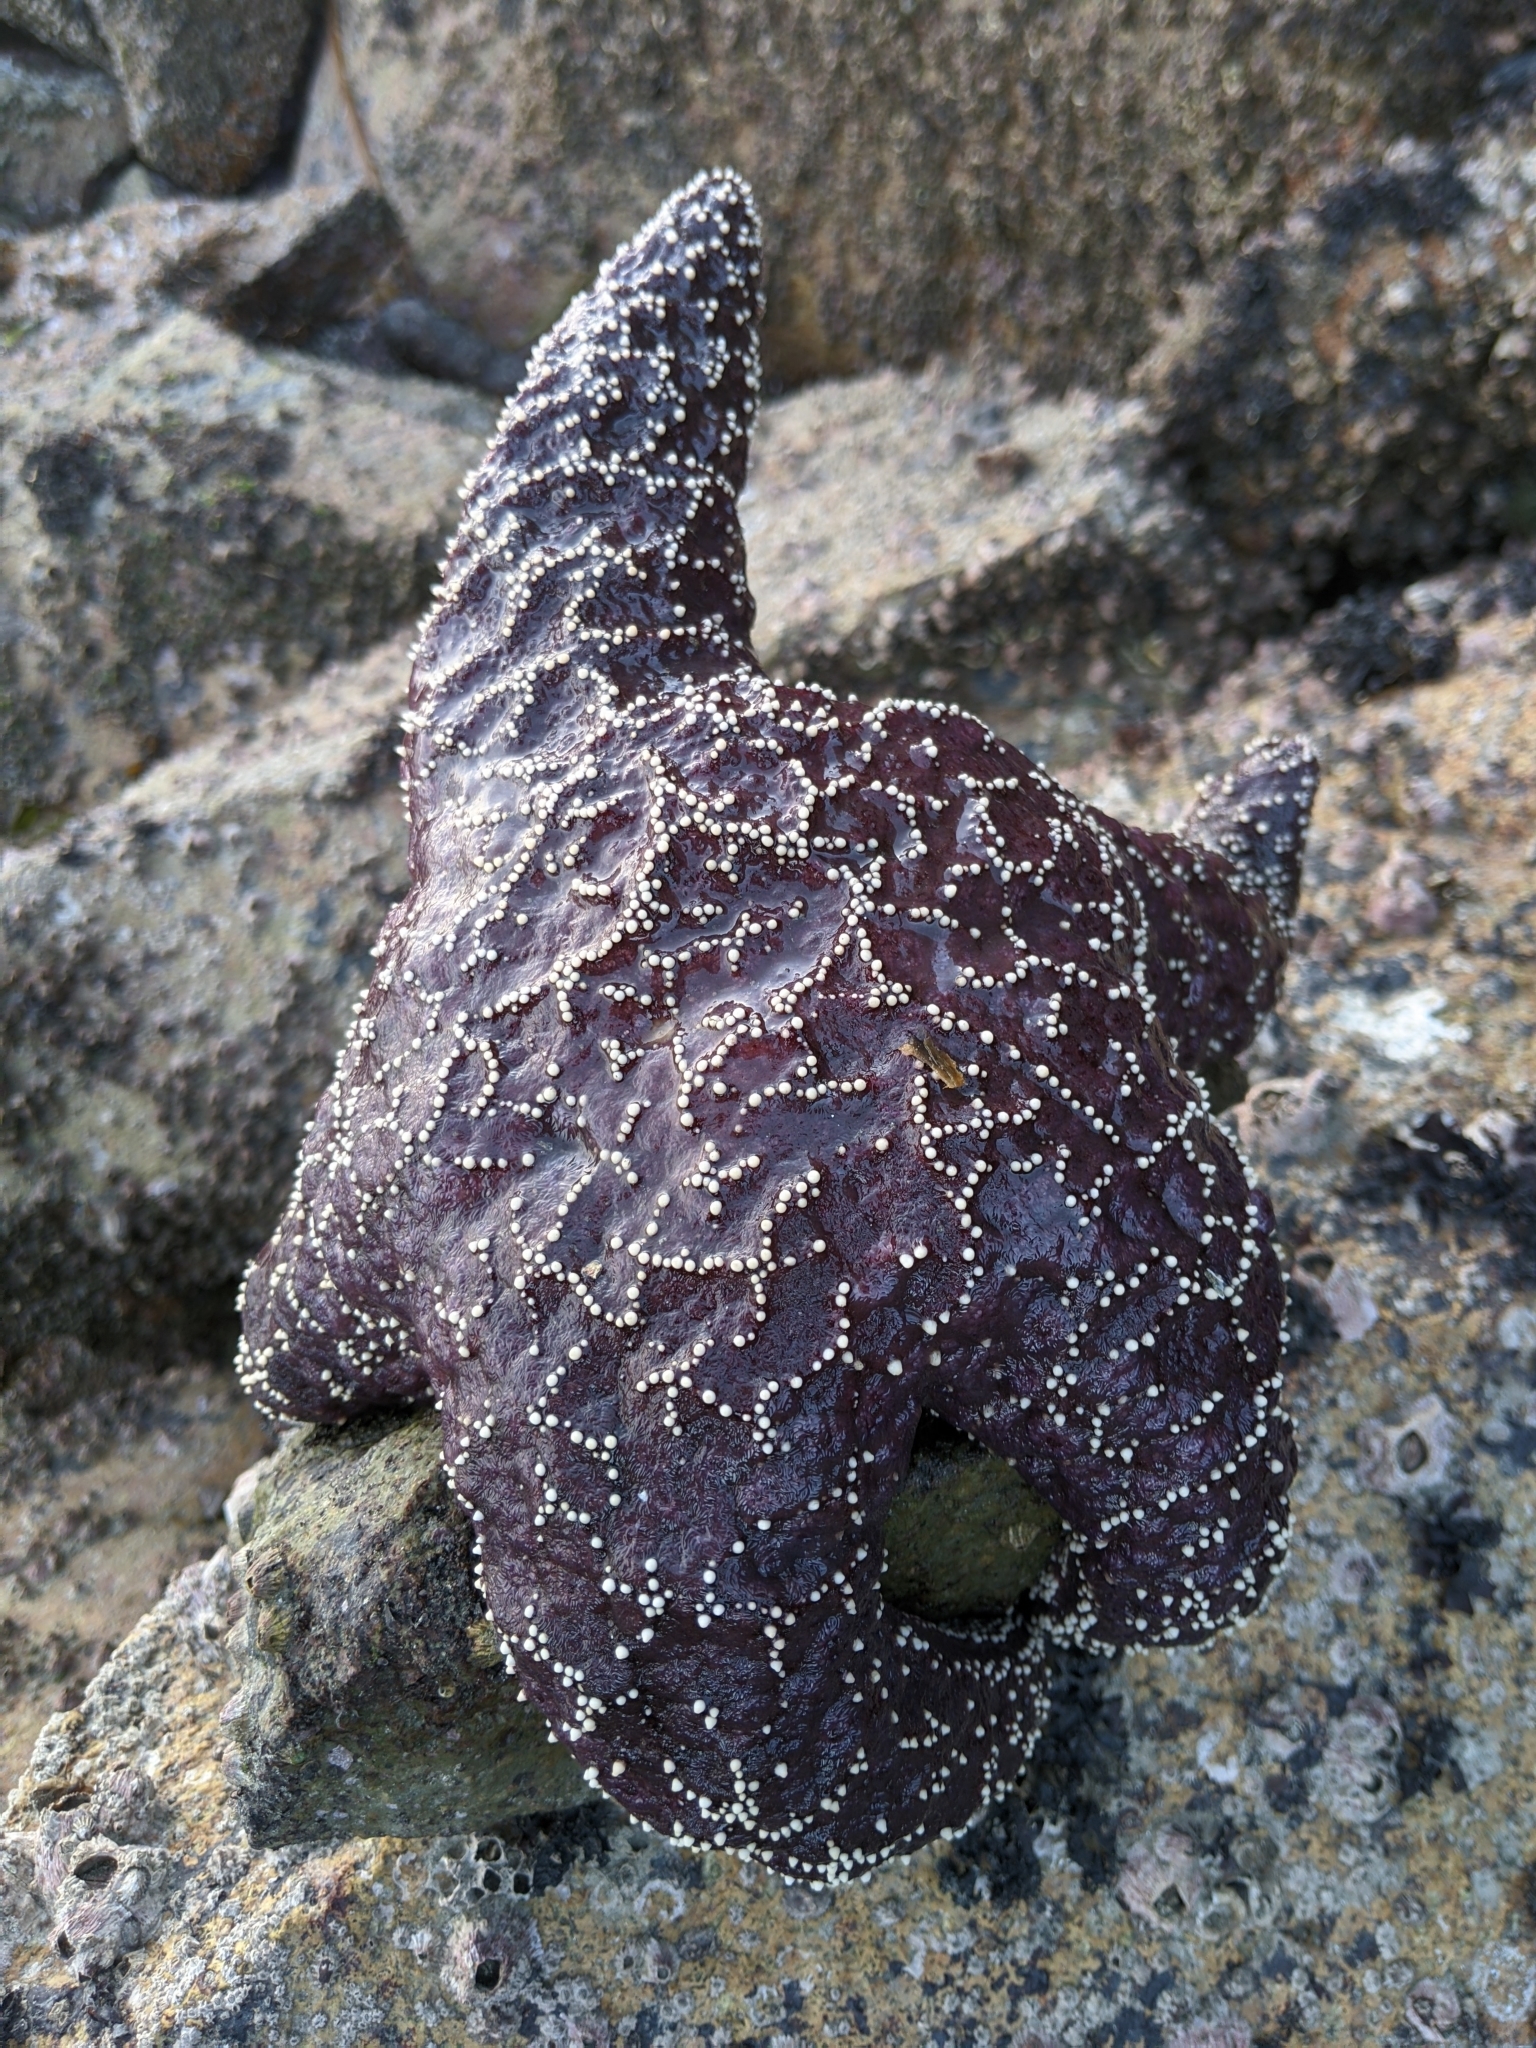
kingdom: Animalia
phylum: Echinodermata
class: Asteroidea
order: Forcipulatida
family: Asteriidae
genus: Pisaster
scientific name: Pisaster ochraceus
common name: Ochre stars
